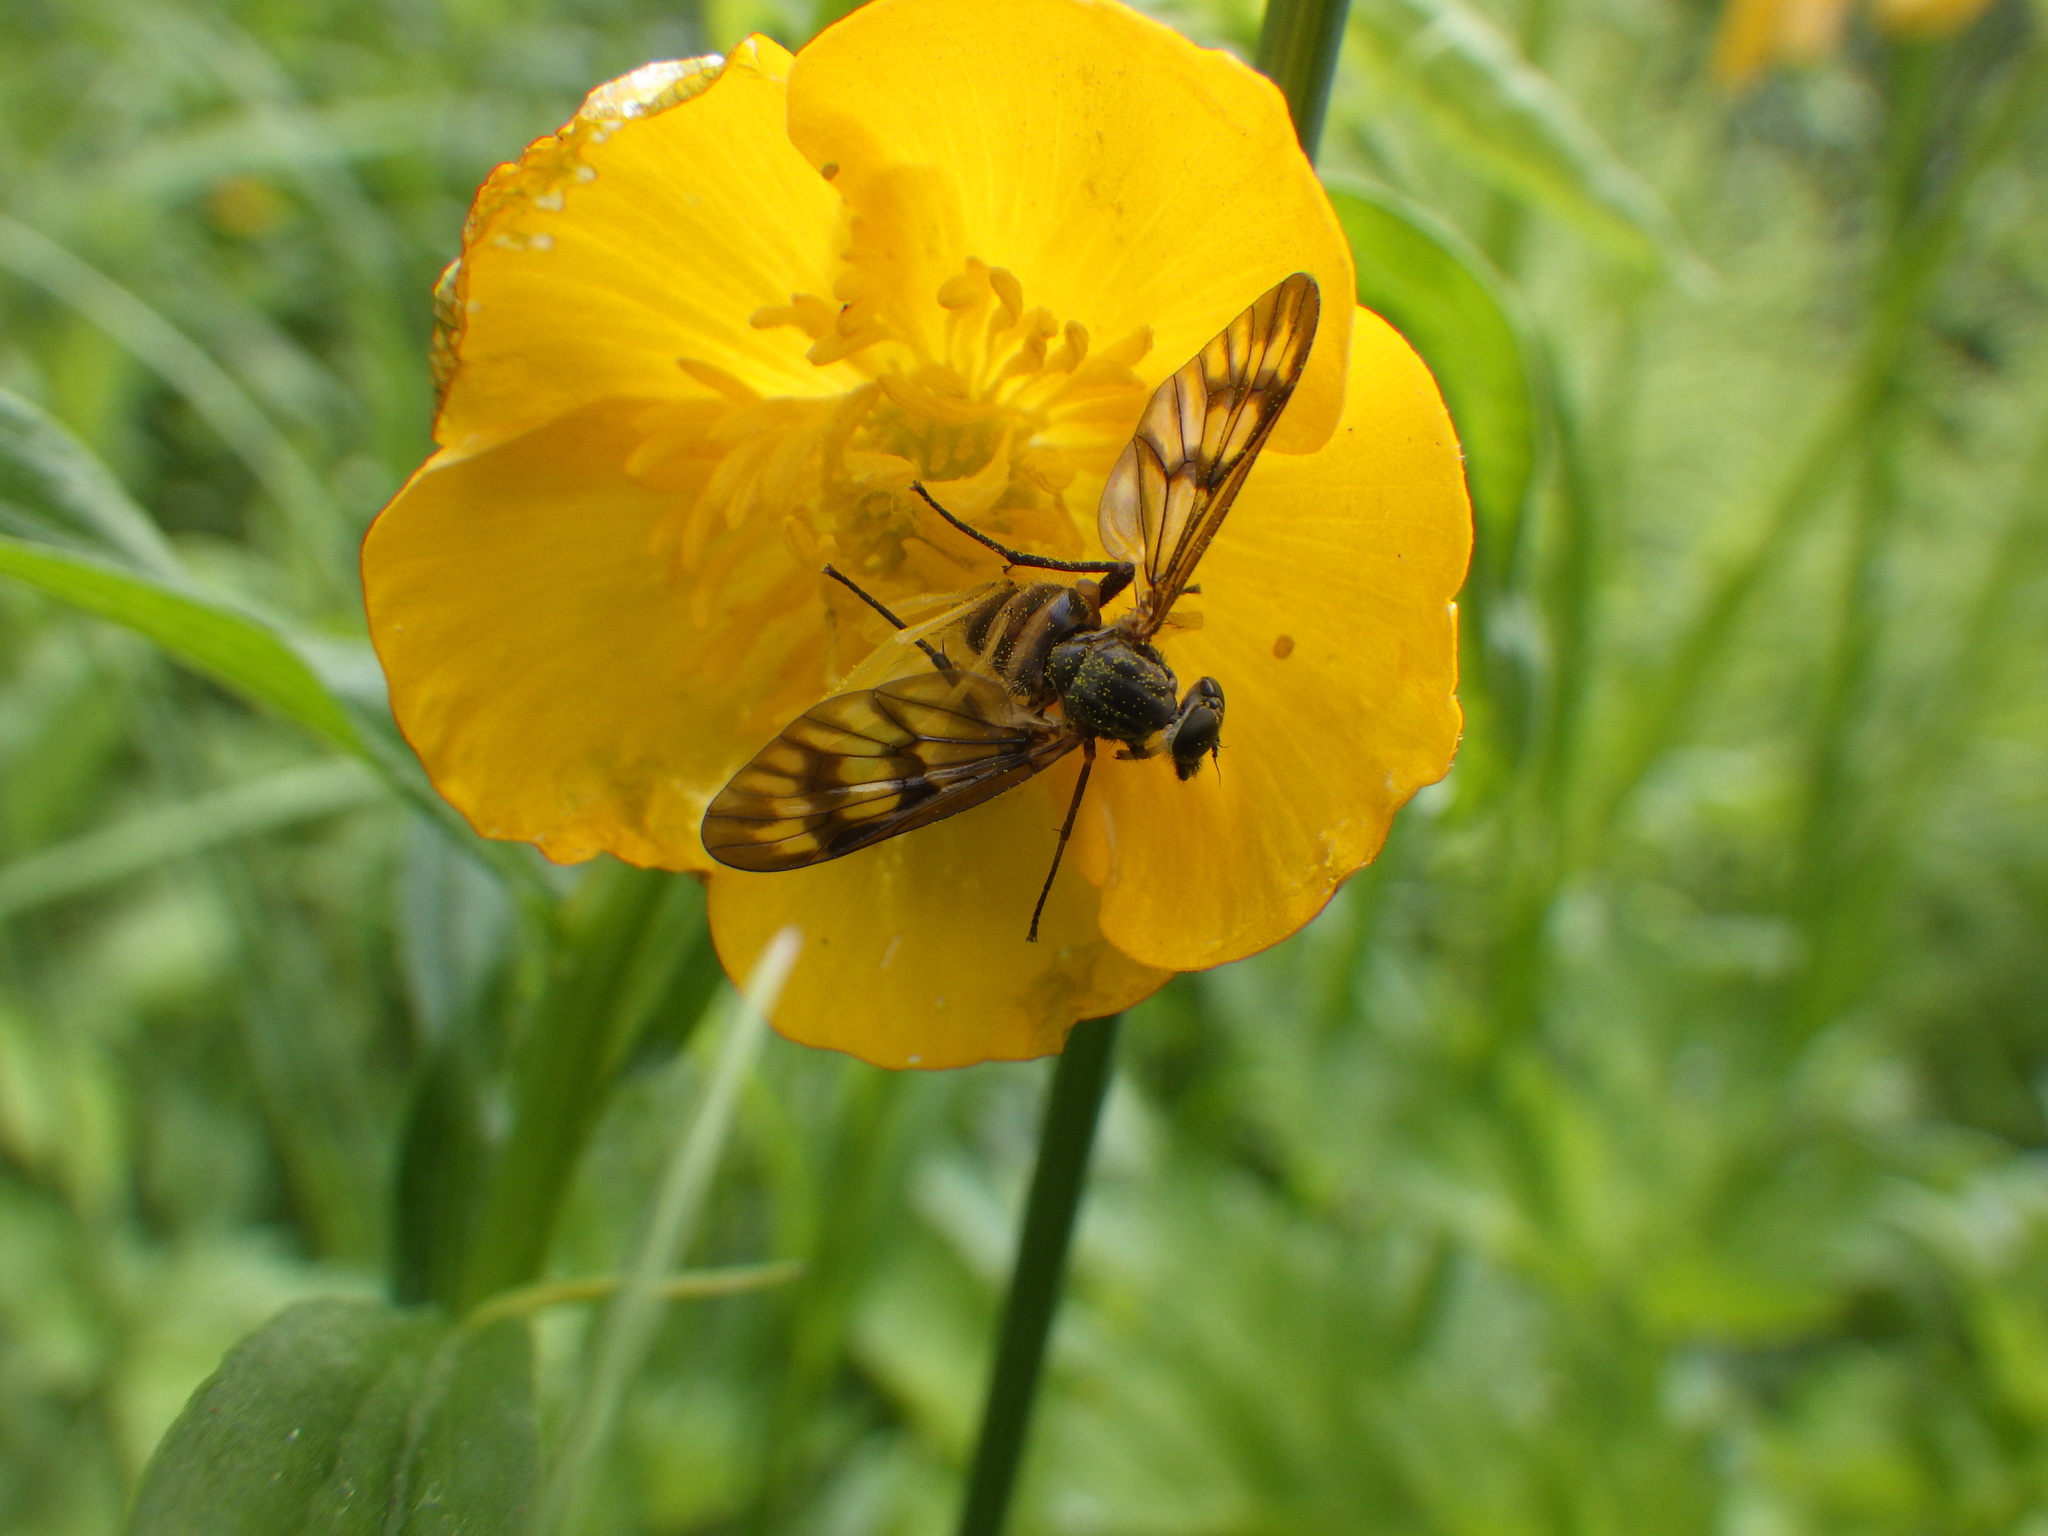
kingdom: Animalia
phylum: Arthropoda
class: Insecta
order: Diptera
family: Rhagionidae
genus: Rhagio
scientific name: Rhagio mystaceus
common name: Common snipe fly
